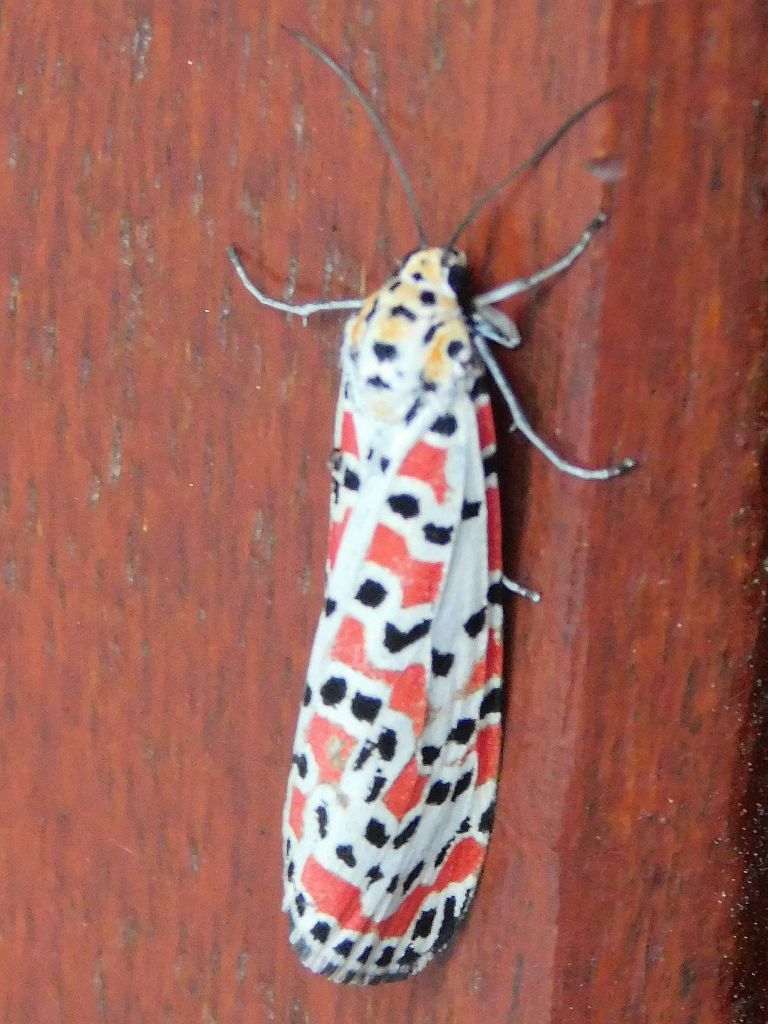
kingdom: Animalia
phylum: Arthropoda
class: Insecta
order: Lepidoptera
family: Erebidae
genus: Utetheisa
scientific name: Utetheisa pulchella
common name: Crimson speckled
